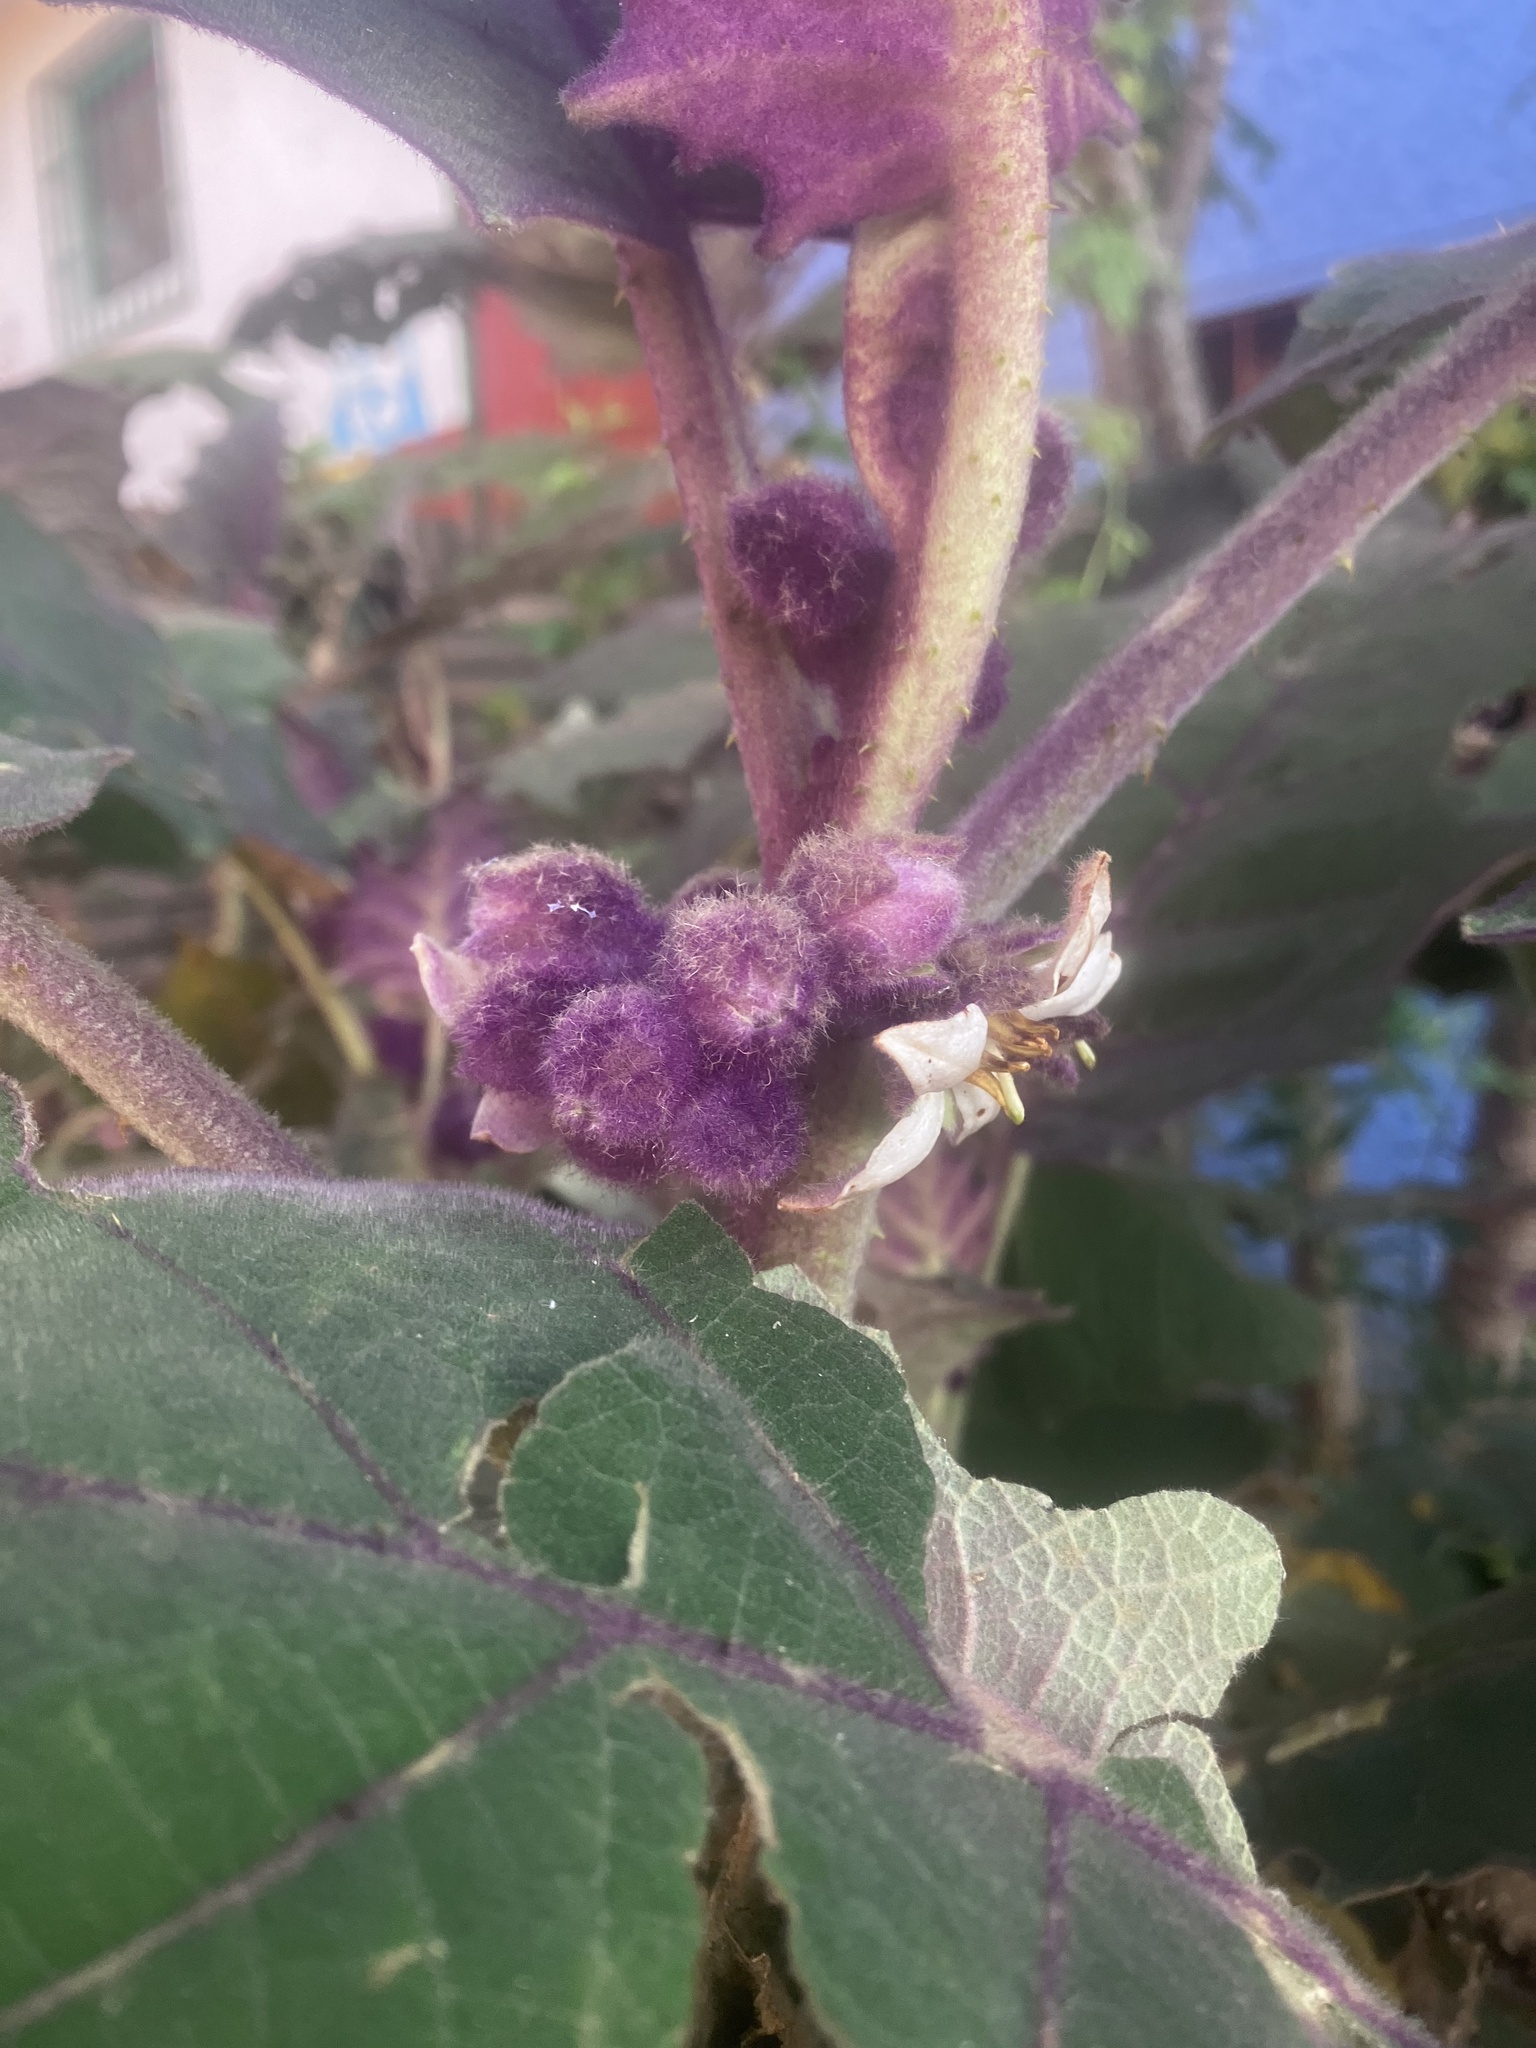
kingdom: Plantae
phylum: Tracheophyta
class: Magnoliopsida
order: Solanales
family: Solanaceae
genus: Solanum
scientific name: Solanum quitoense
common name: Quito-orange
